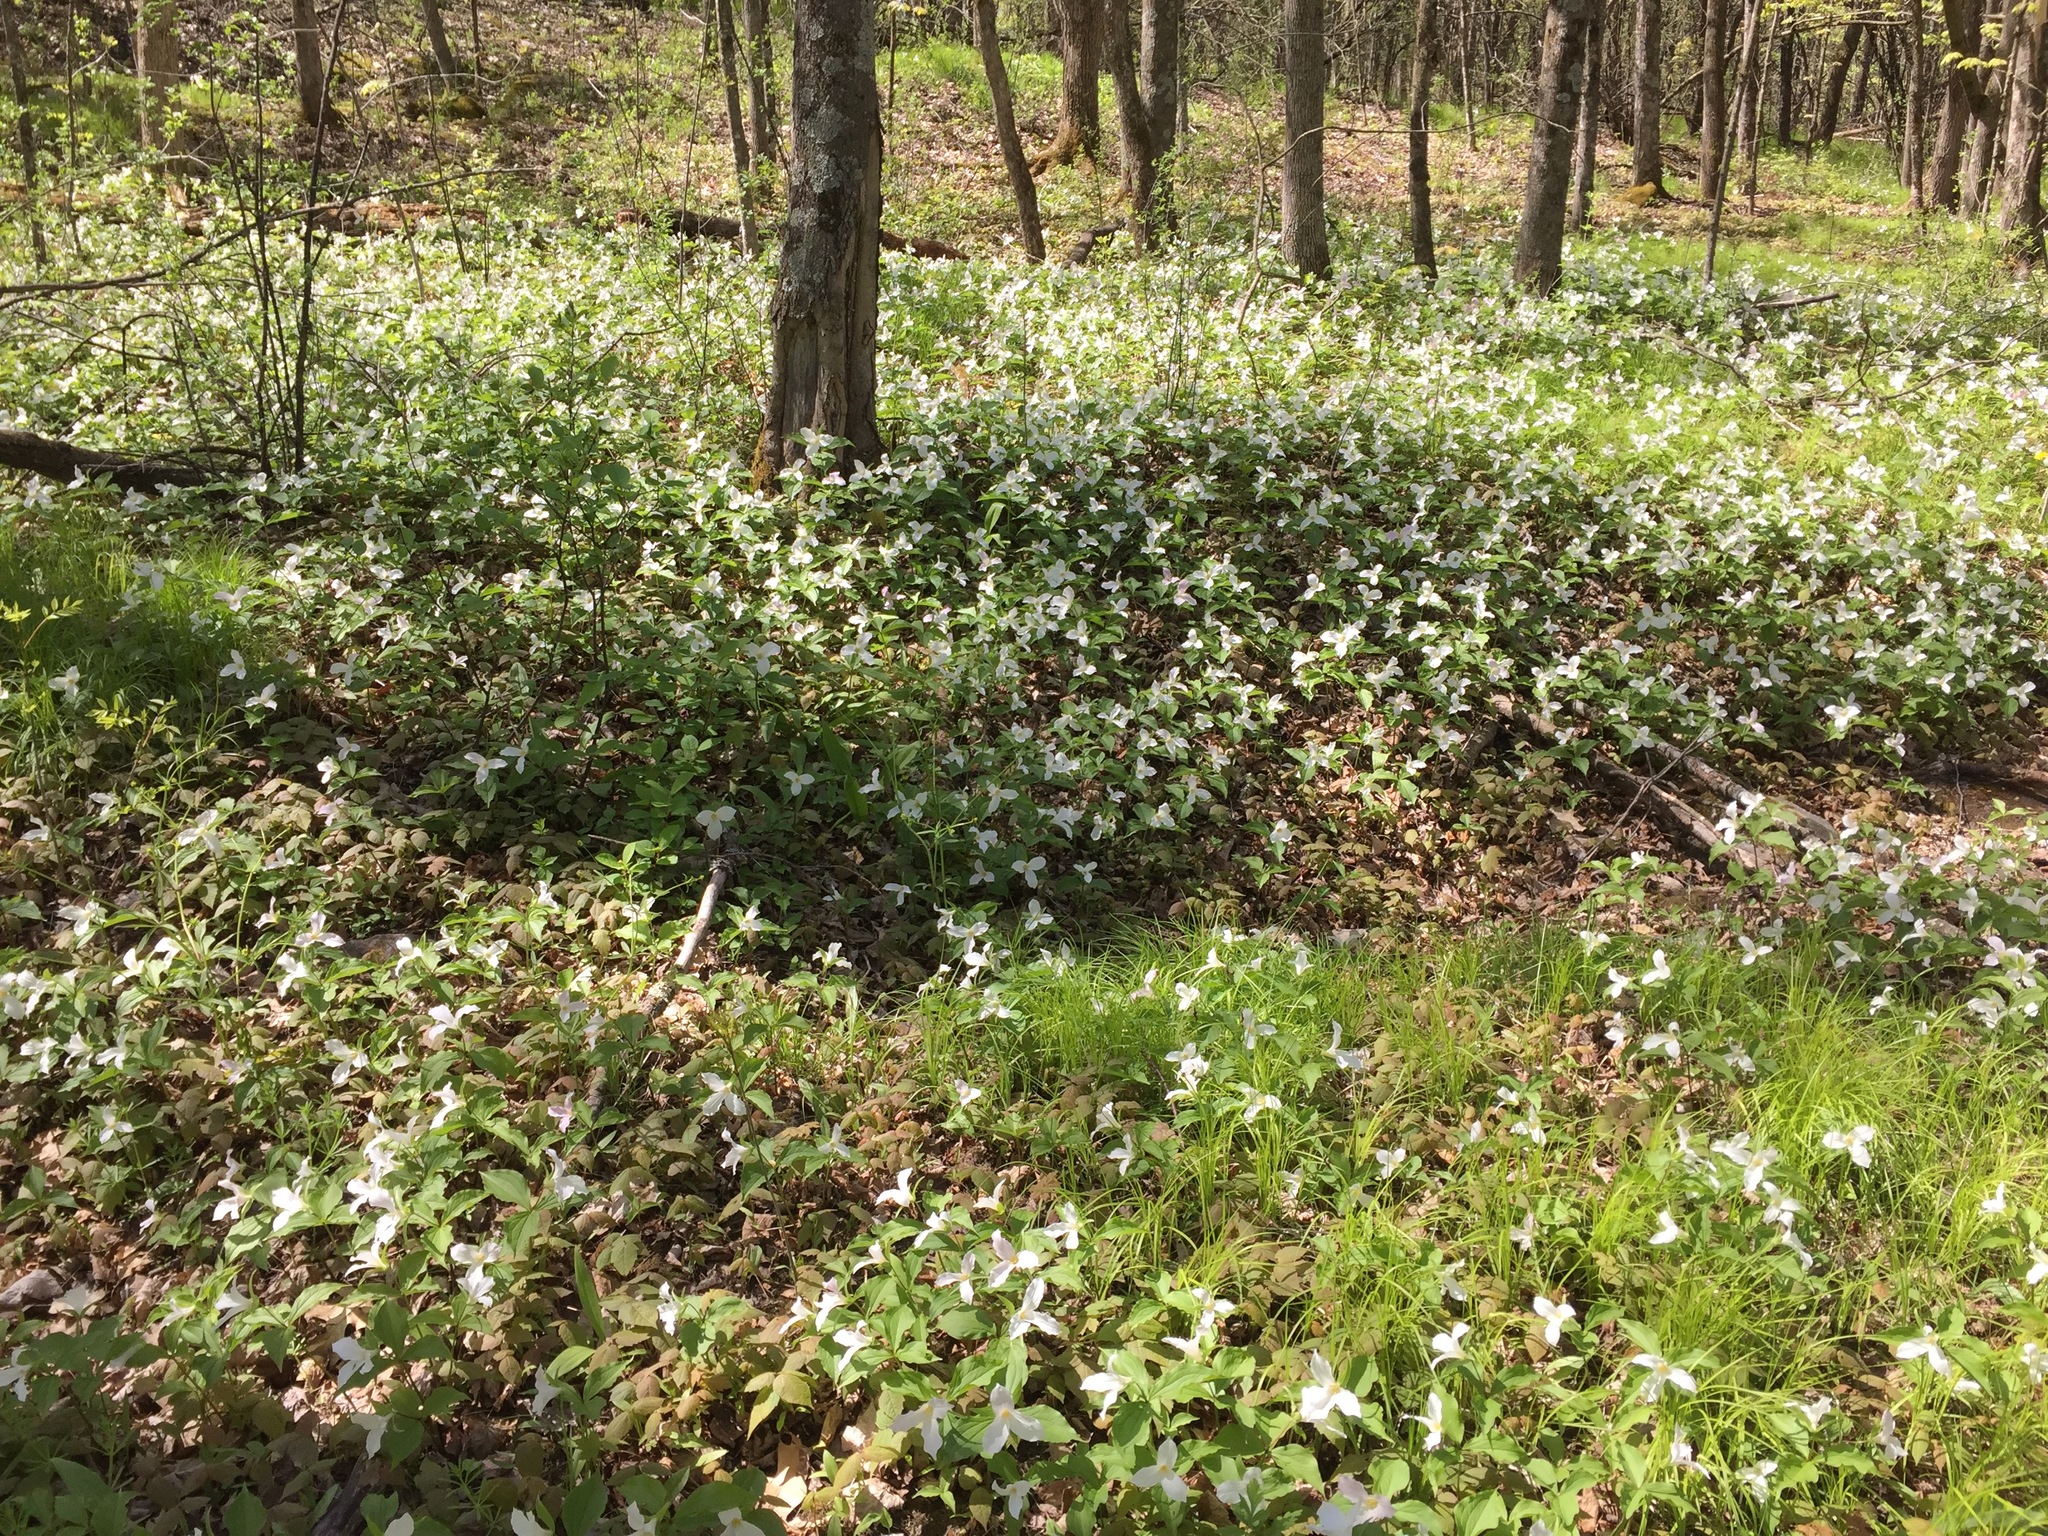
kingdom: Plantae
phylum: Tracheophyta
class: Liliopsida
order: Liliales
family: Melanthiaceae
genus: Trillium
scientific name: Trillium grandiflorum
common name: Great white trillium
